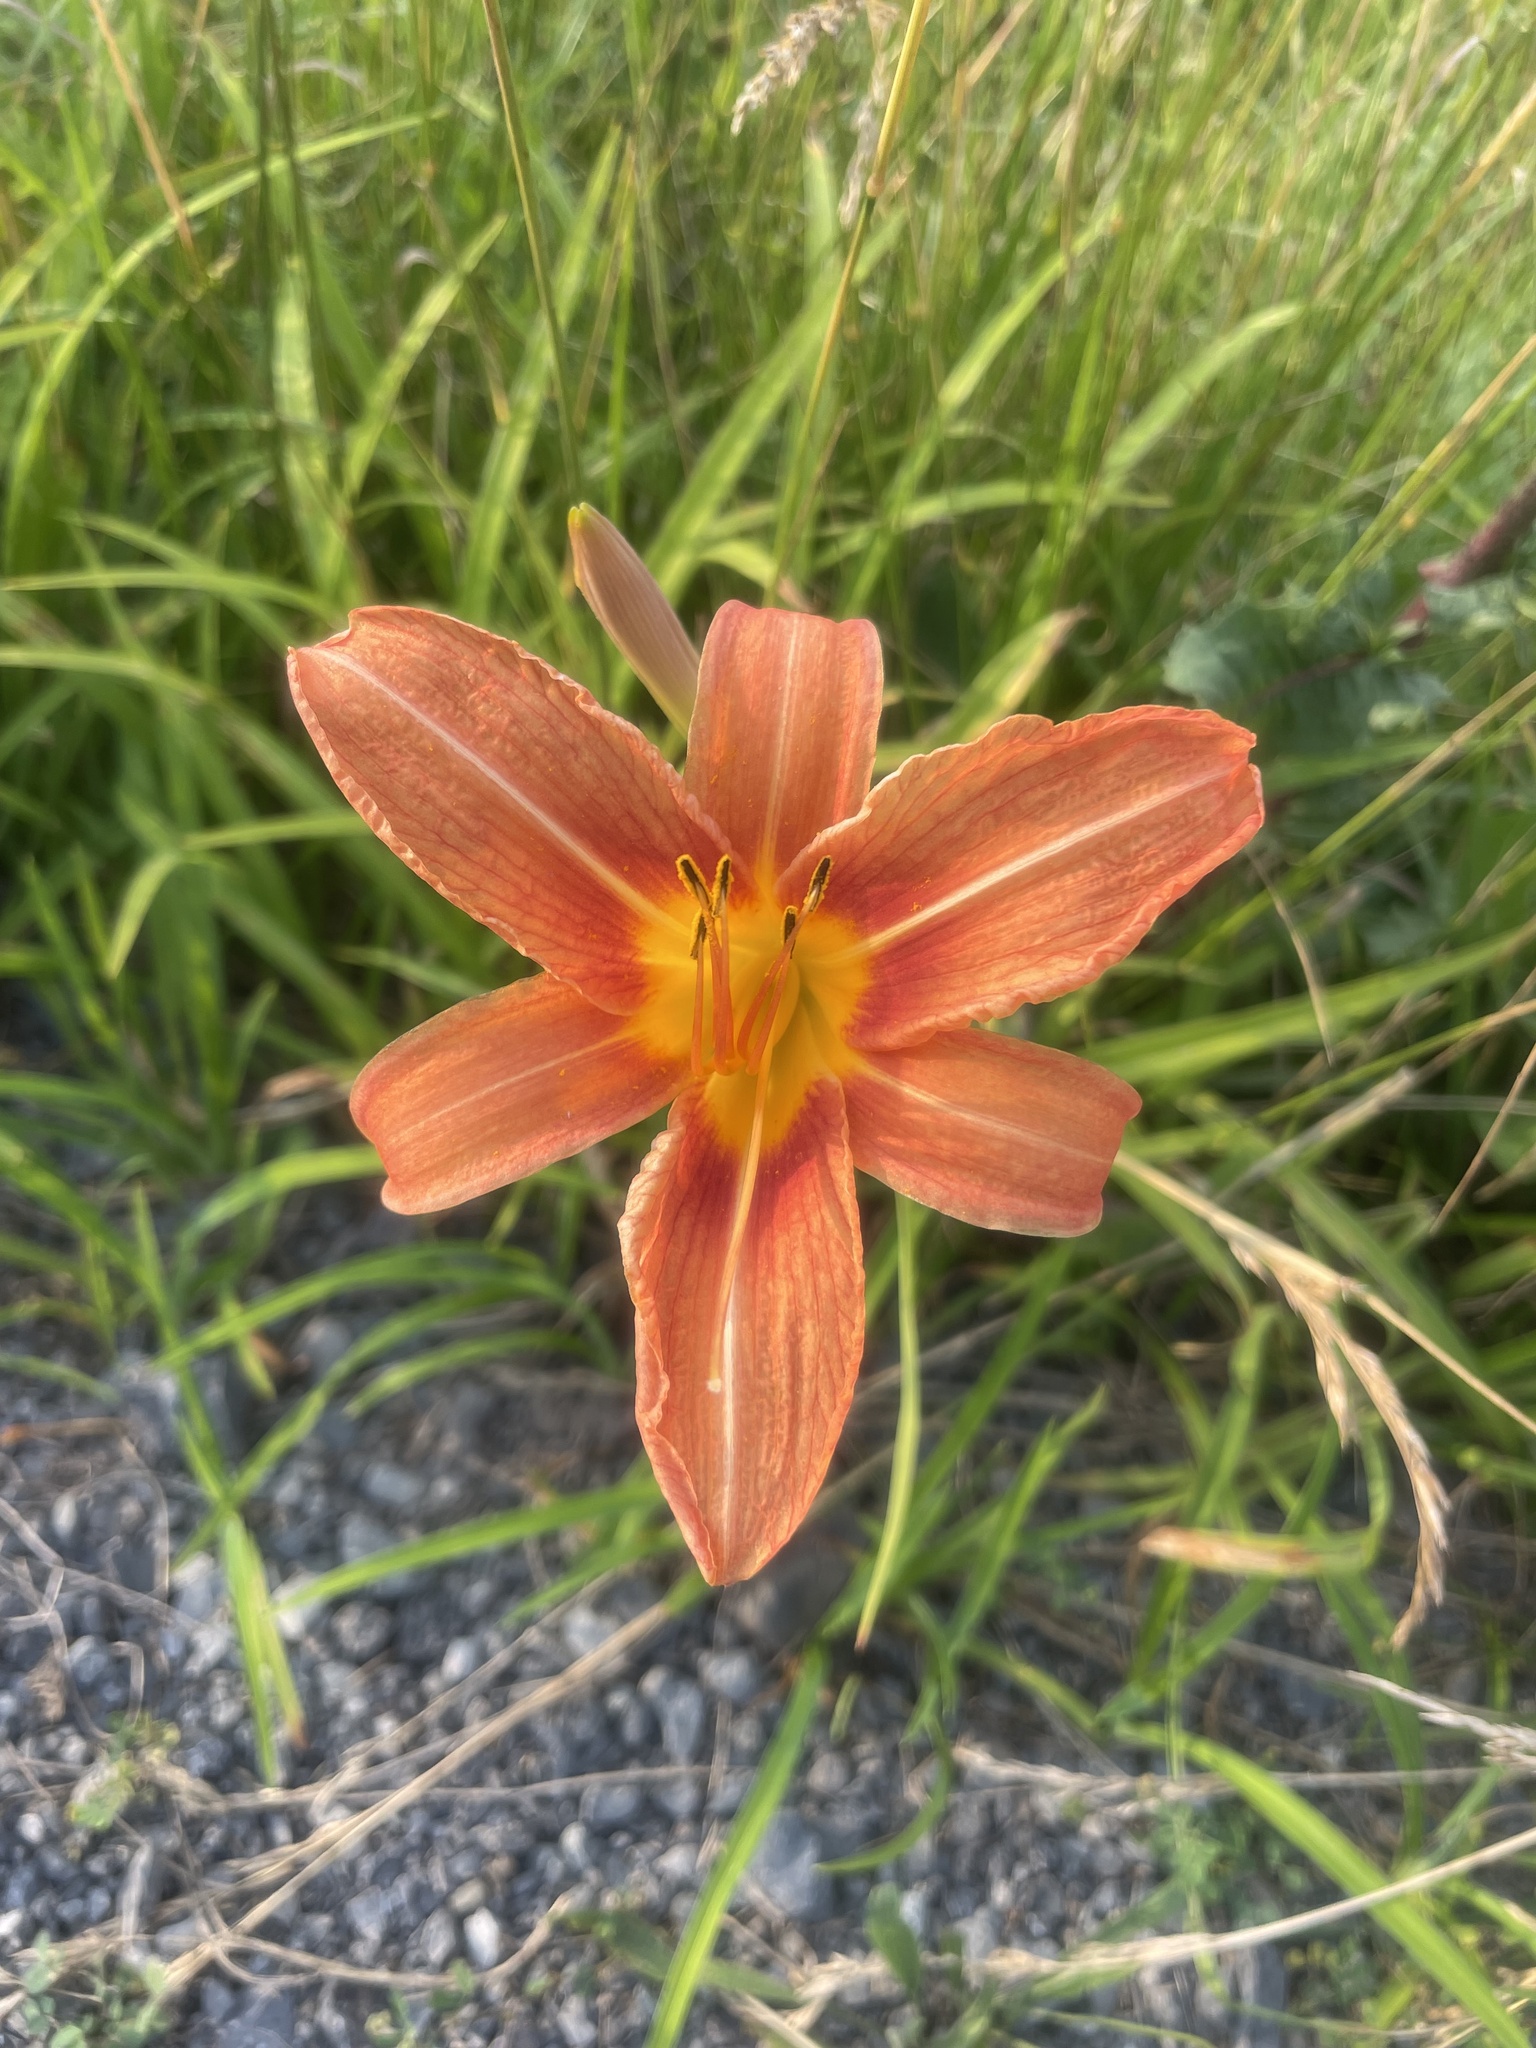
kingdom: Plantae
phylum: Tracheophyta
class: Liliopsida
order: Asparagales
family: Asphodelaceae
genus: Hemerocallis
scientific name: Hemerocallis fulva
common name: Orange day-lily
